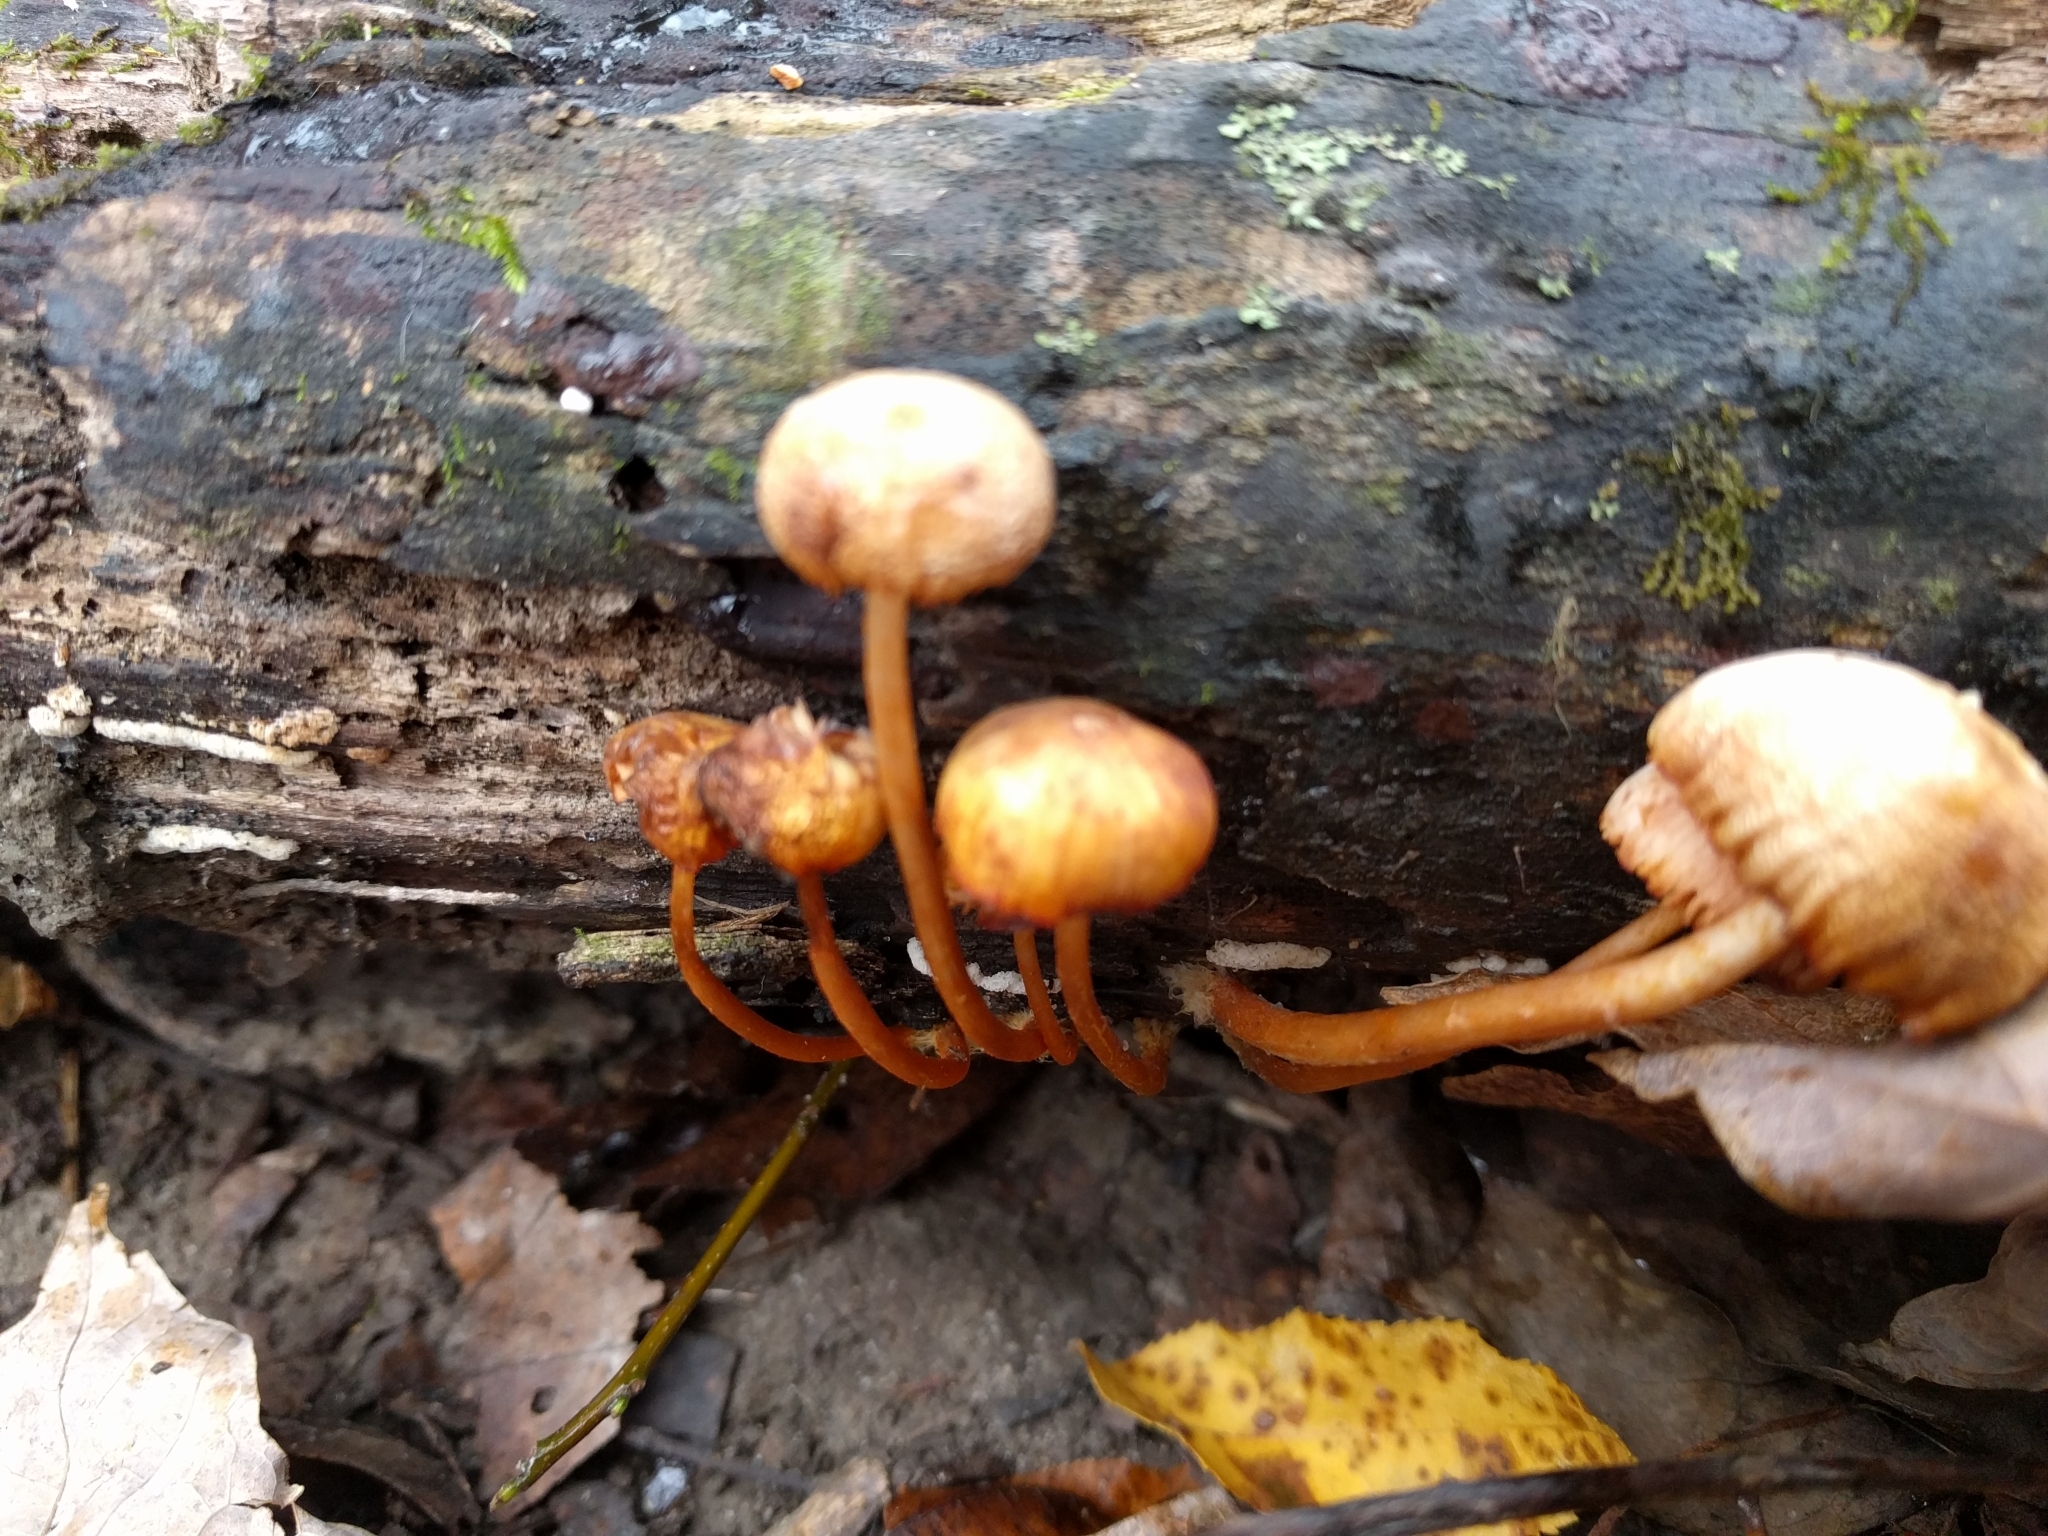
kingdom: Fungi
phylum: Basidiomycota
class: Agaricomycetes
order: Agaricales
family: Mycenaceae
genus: Mycena
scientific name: Mycena leaiana
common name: Orange mycena
